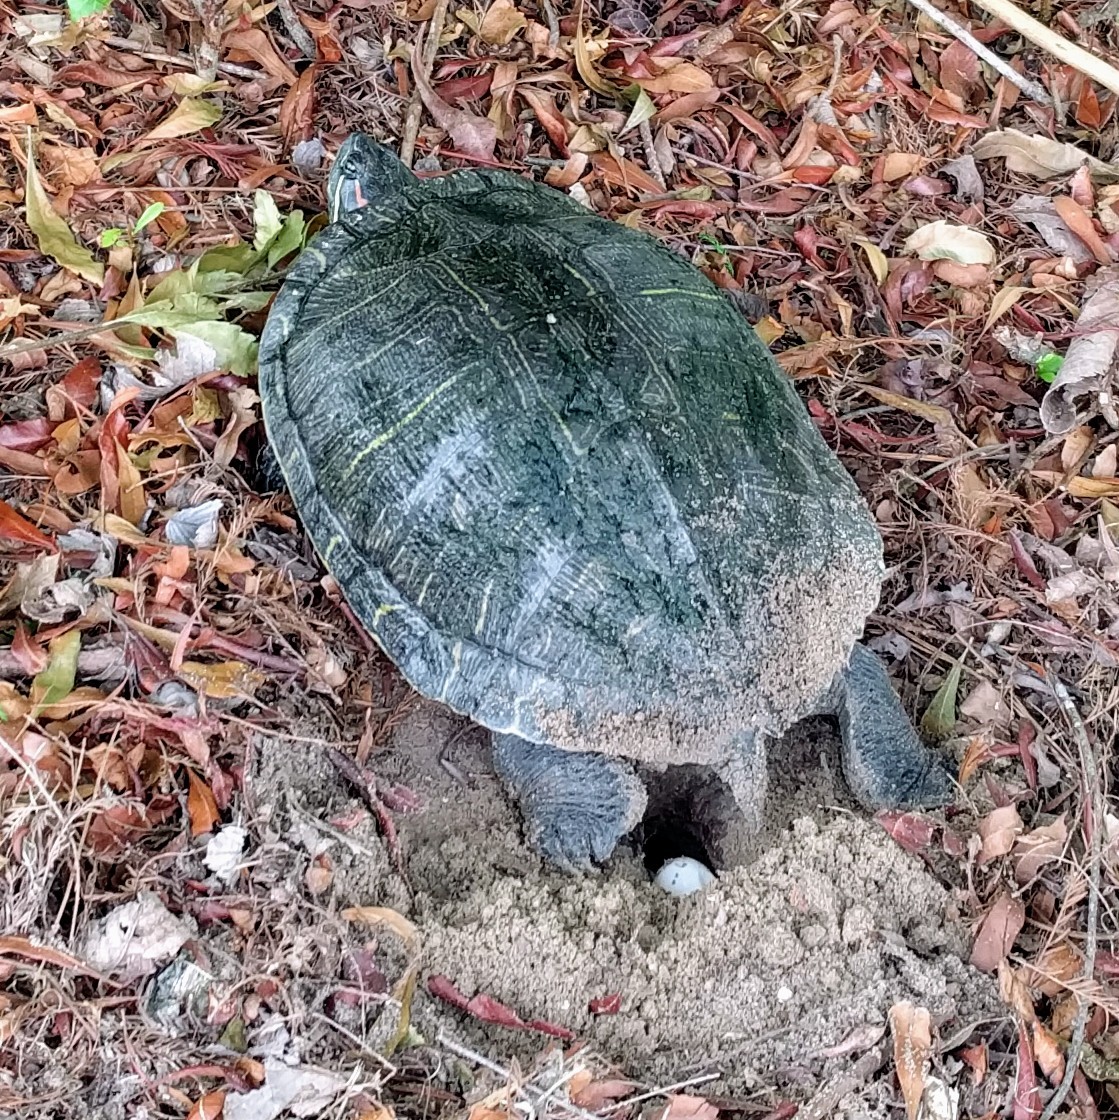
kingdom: Animalia
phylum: Chordata
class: Testudines
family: Emydidae
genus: Trachemys
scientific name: Trachemys scripta
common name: Slider
